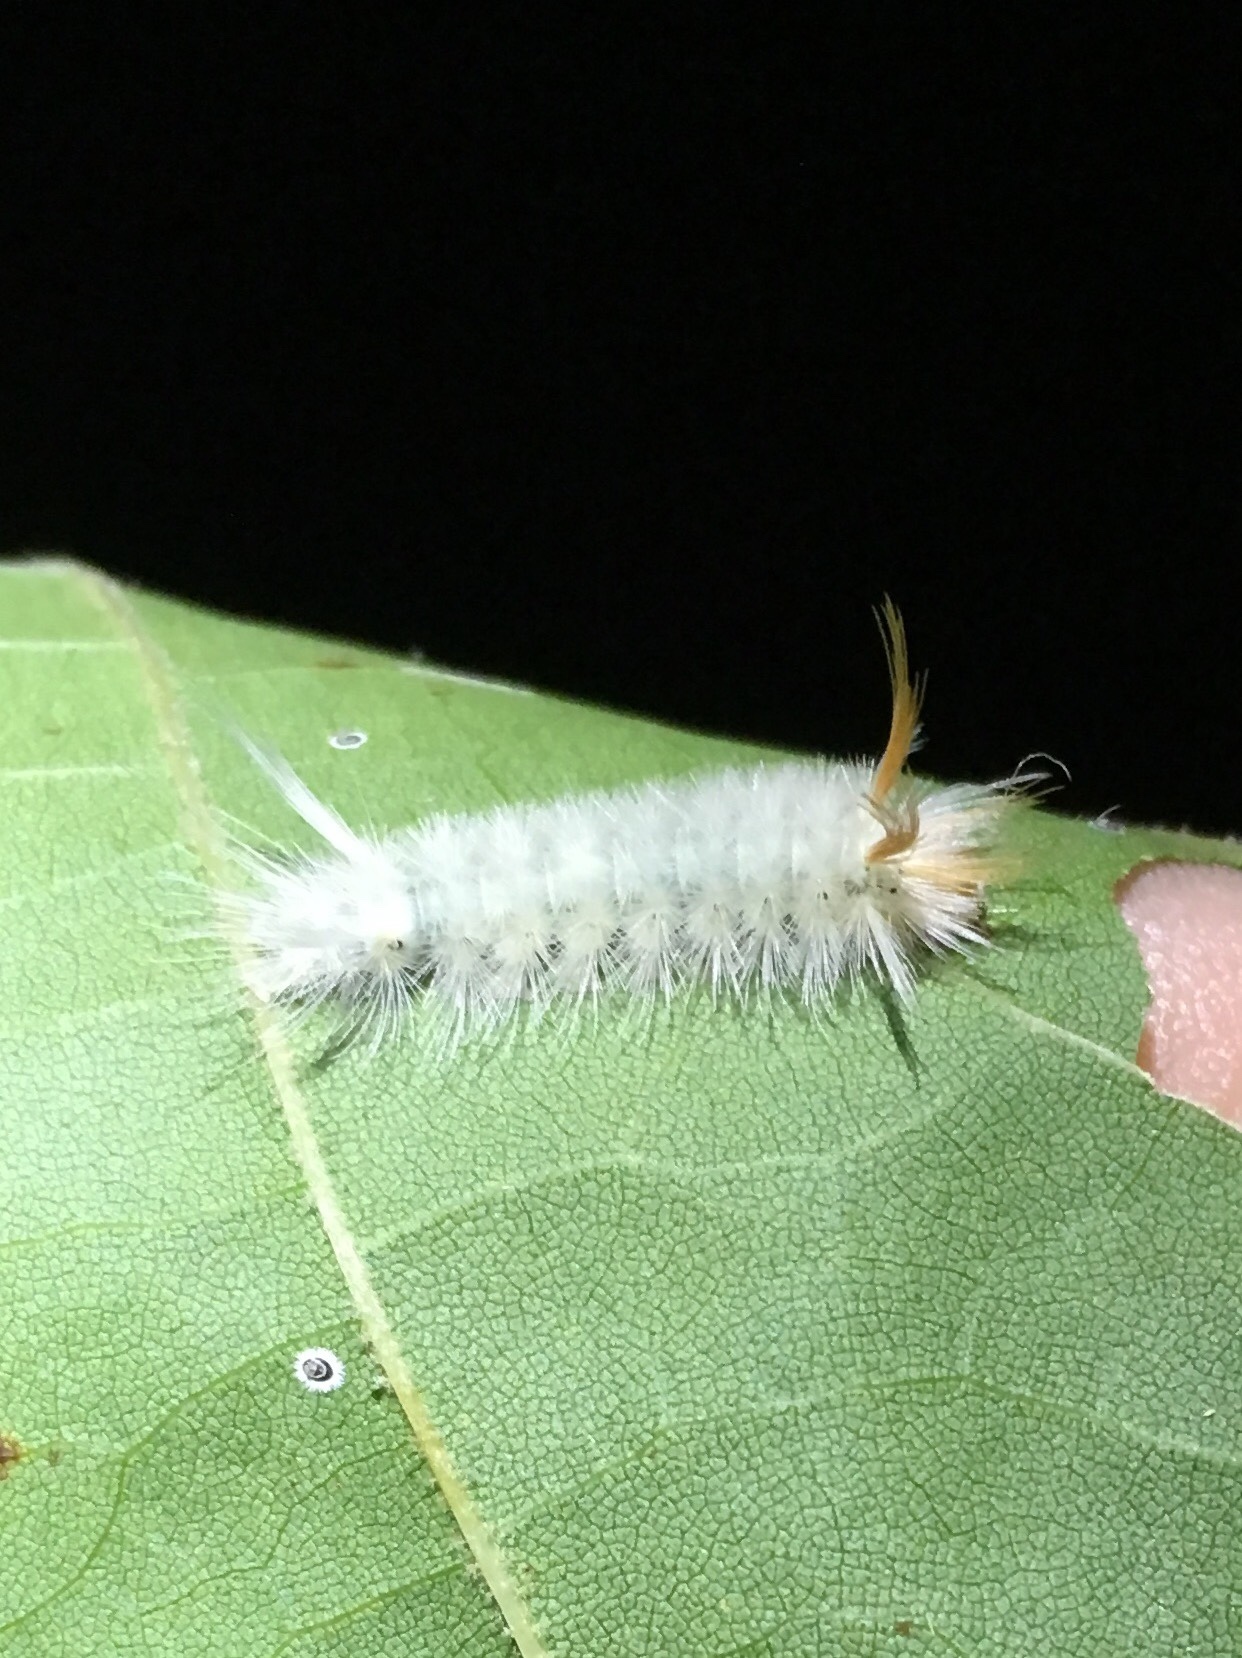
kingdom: Animalia
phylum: Arthropoda
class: Insecta
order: Lepidoptera
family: Erebidae
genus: Halysidota
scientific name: Halysidota harrisii
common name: Sycamore tussock moth
